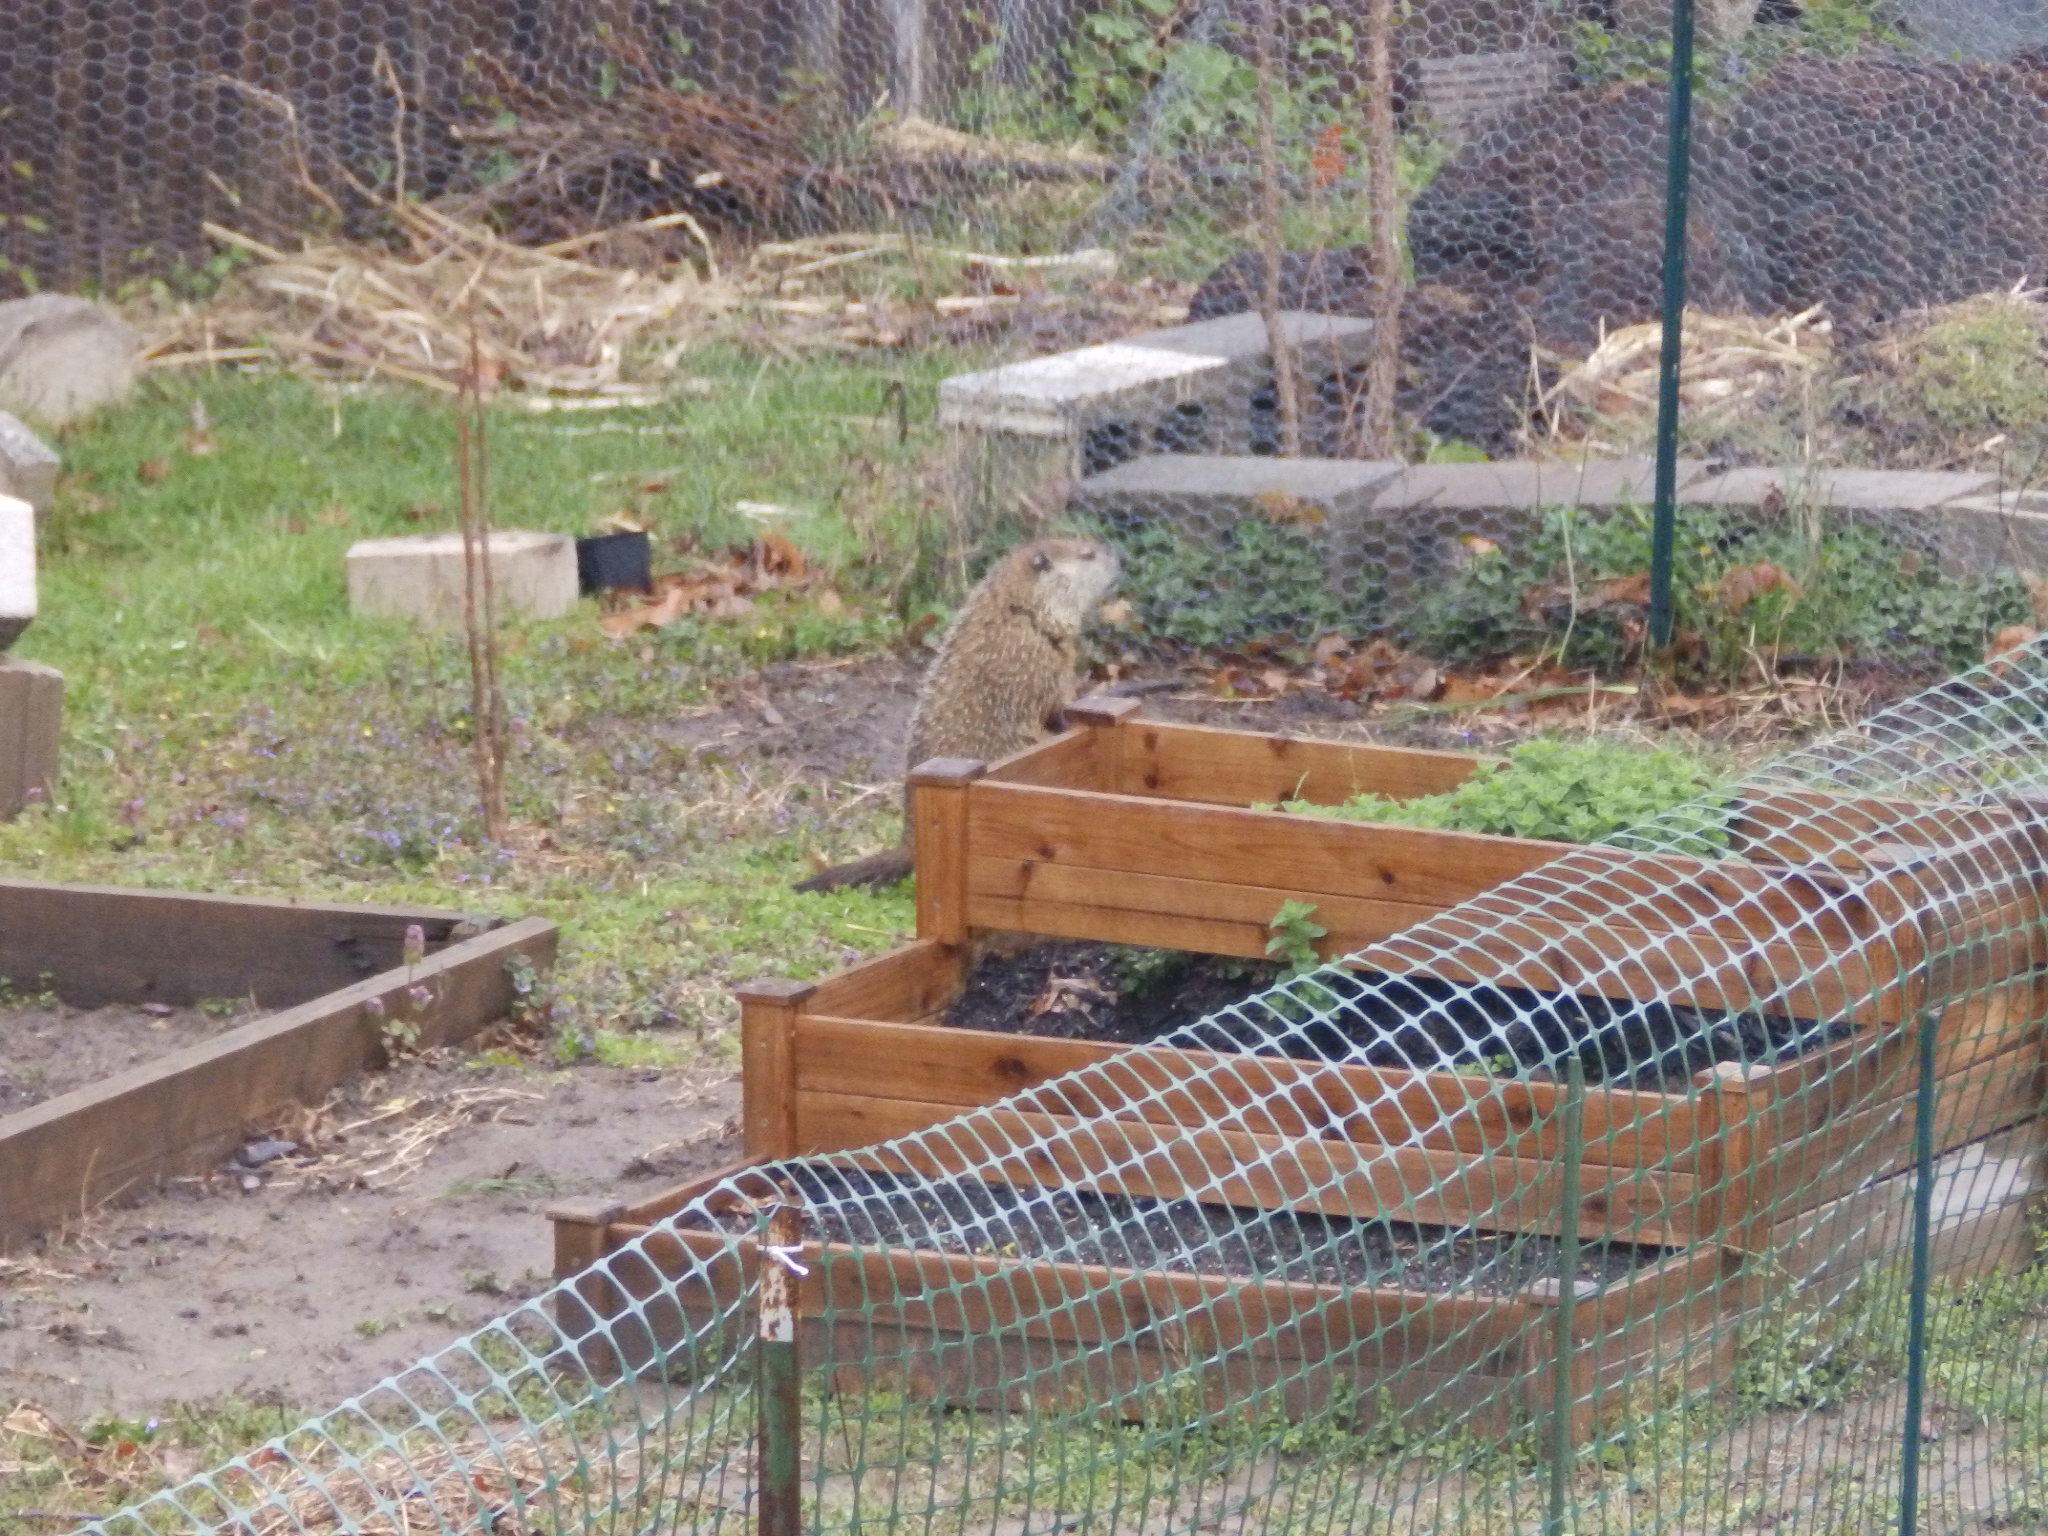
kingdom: Animalia
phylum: Chordata
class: Mammalia
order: Rodentia
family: Sciuridae
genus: Marmota
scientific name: Marmota monax
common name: Groundhog
